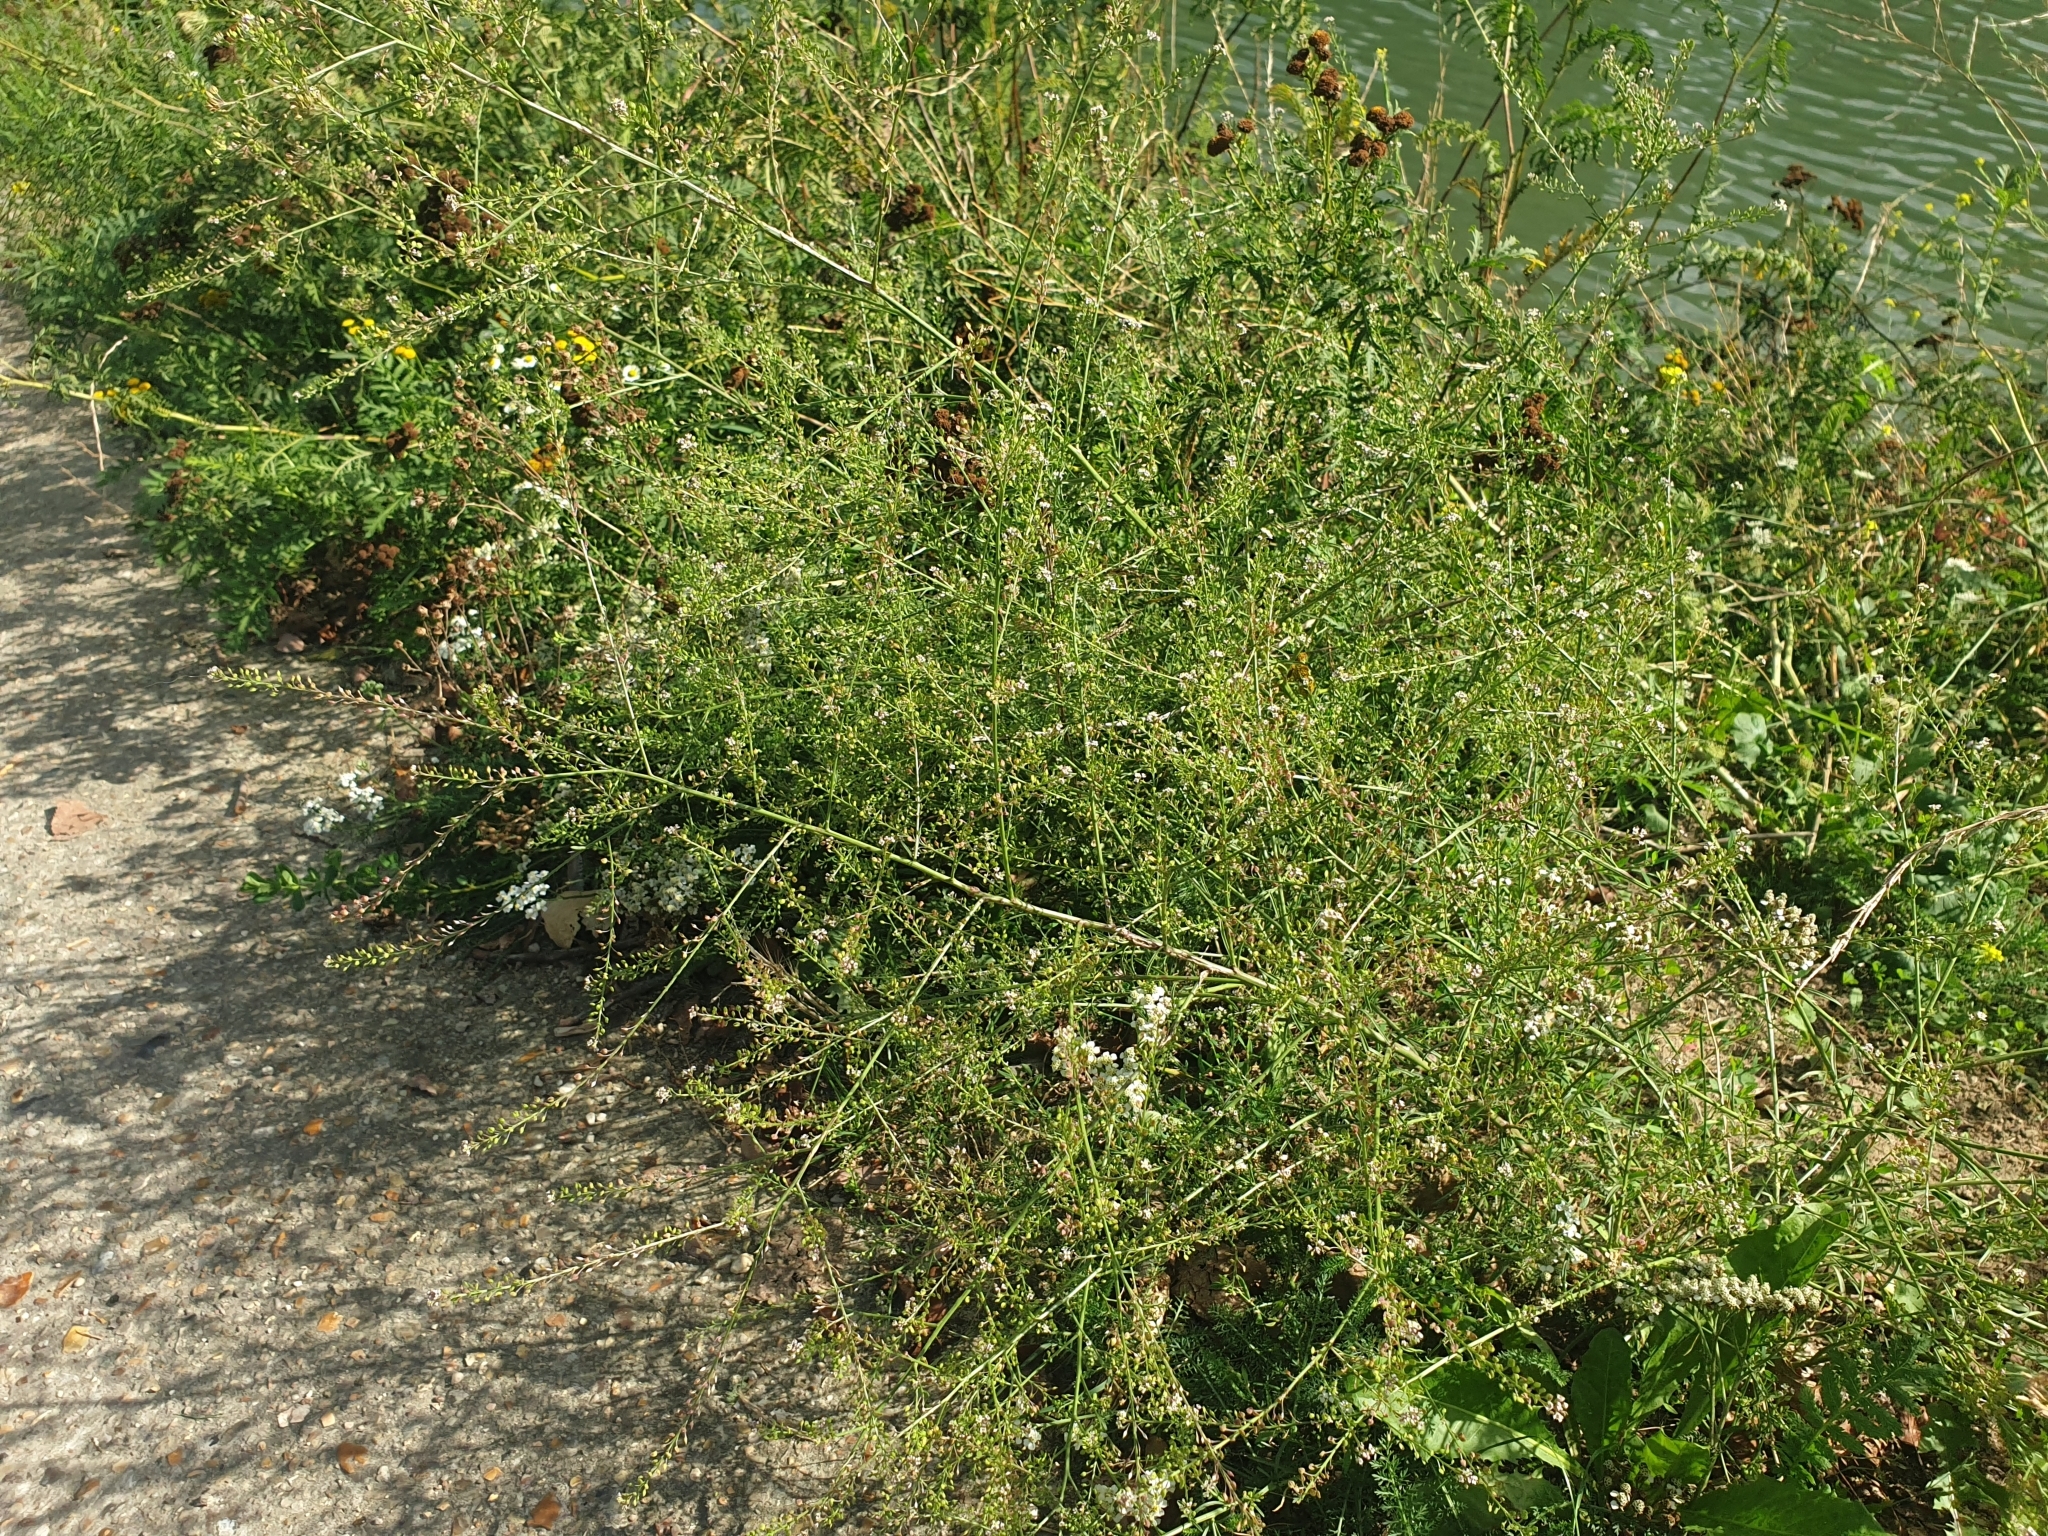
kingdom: Plantae
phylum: Tracheophyta
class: Magnoliopsida
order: Brassicales
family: Brassicaceae
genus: Lepidium
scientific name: Lepidium graminifolium
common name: Tall pepperwort
